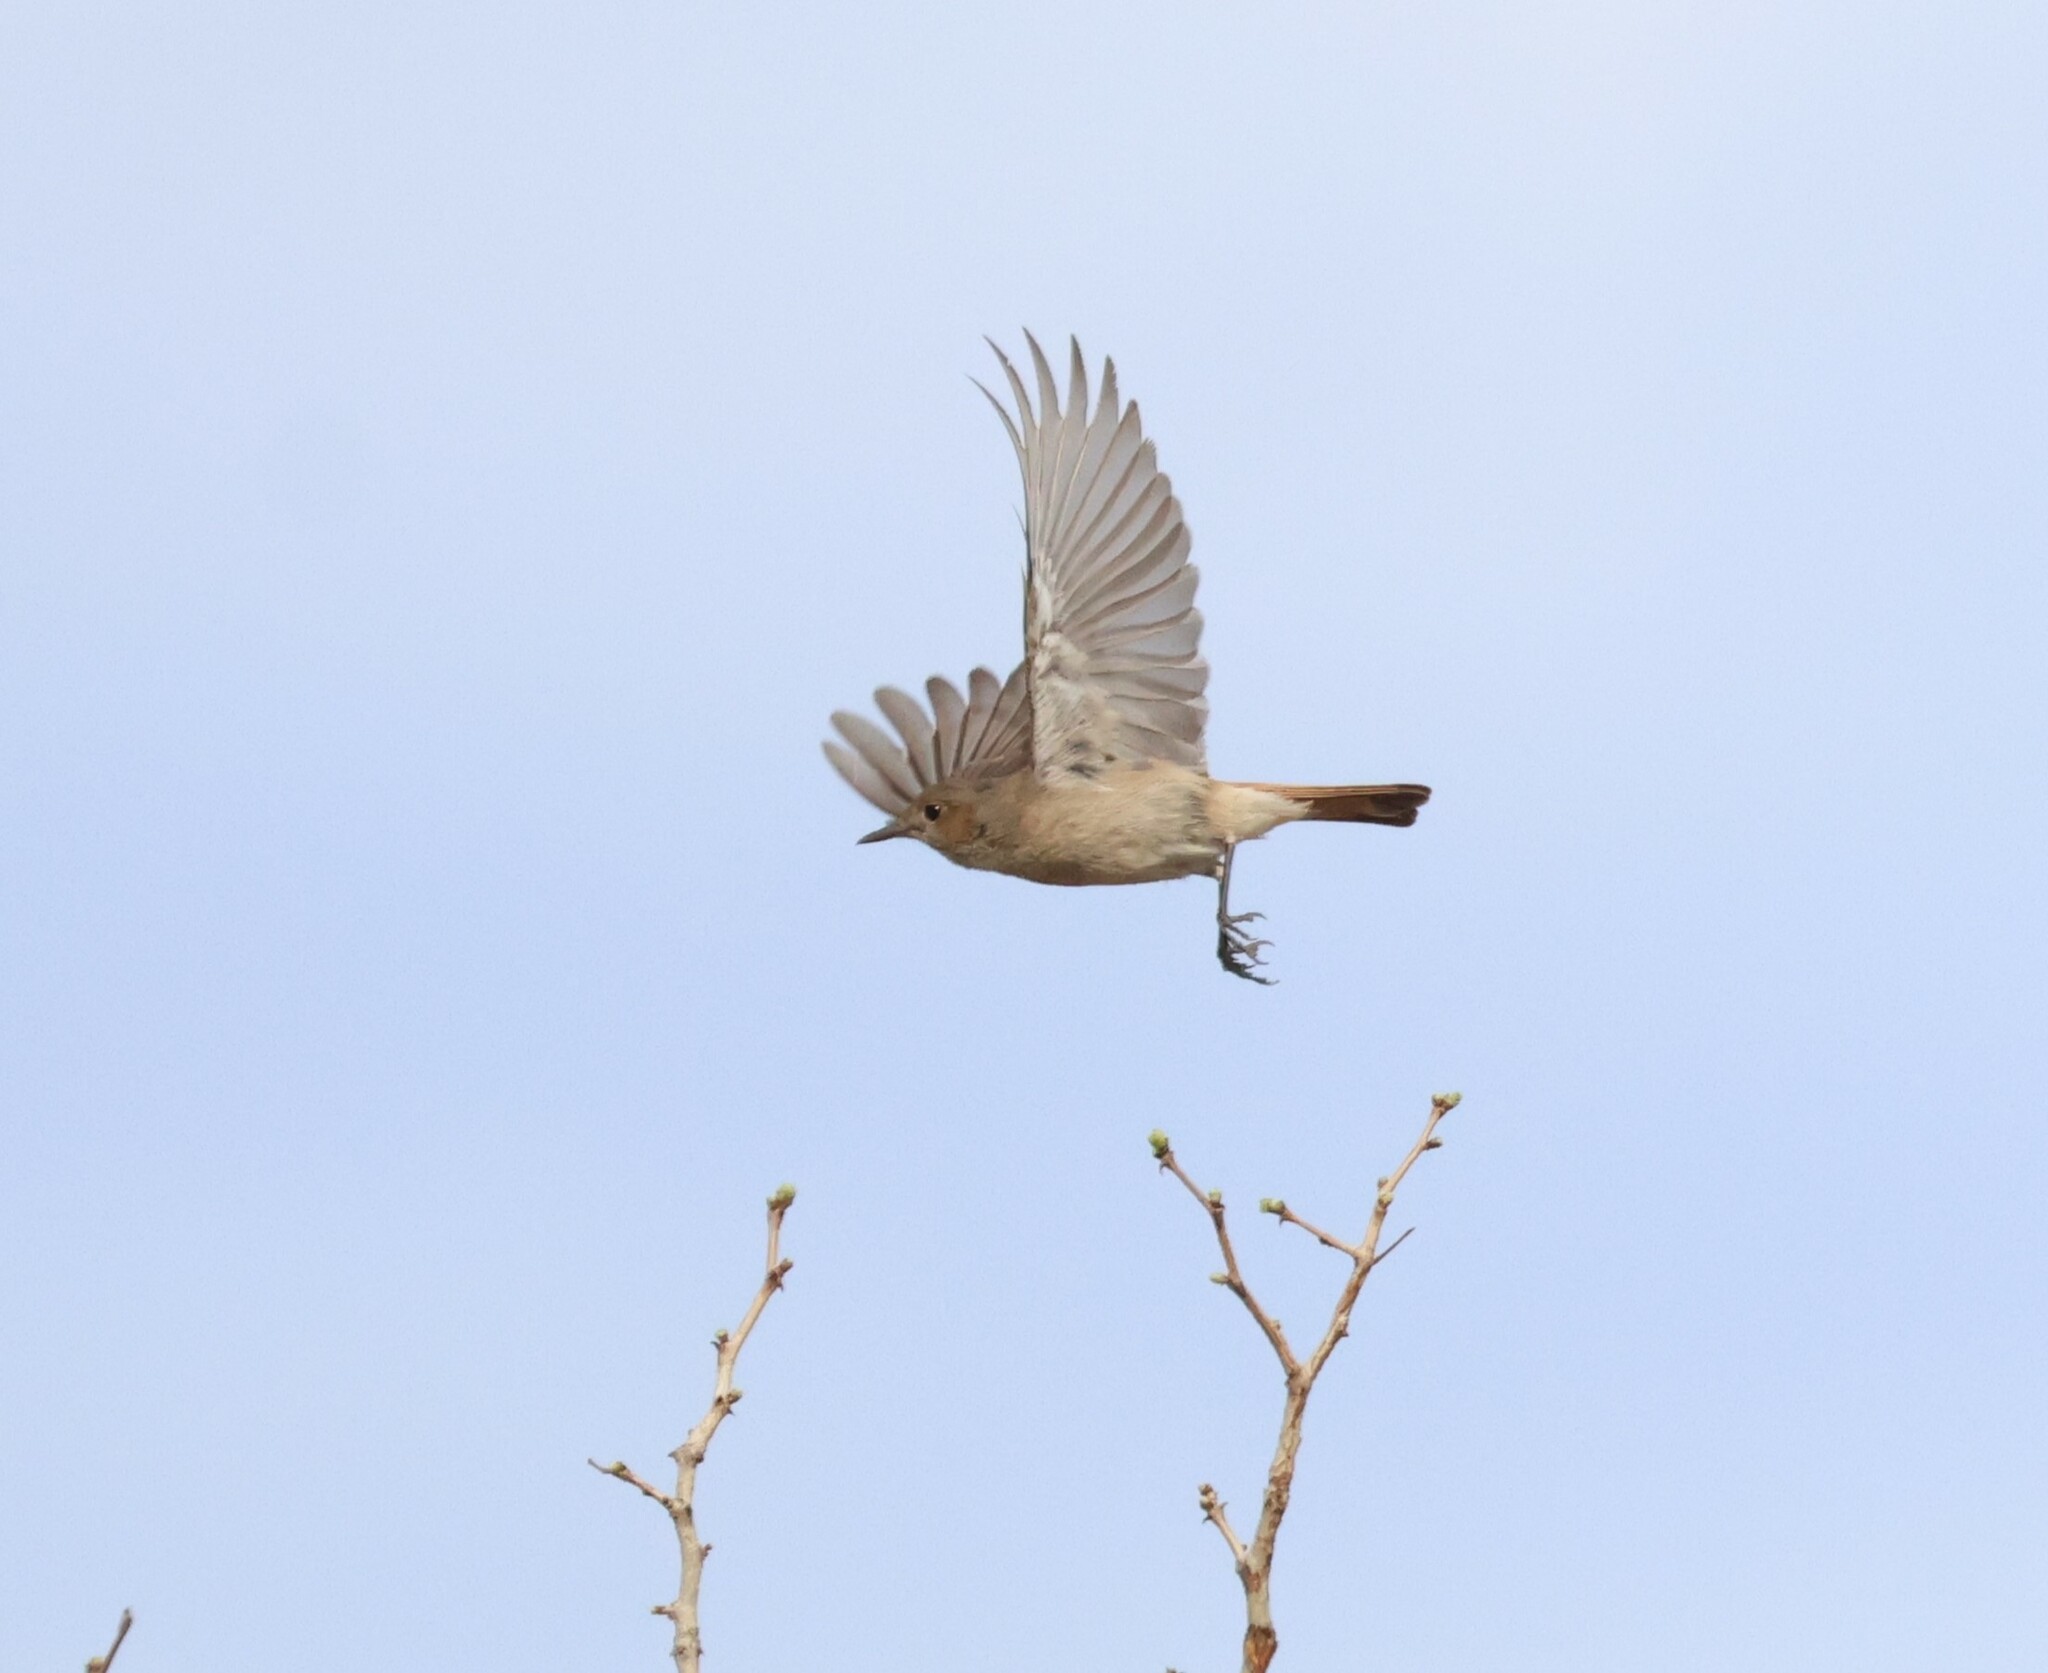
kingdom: Animalia
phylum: Chordata
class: Aves
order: Passeriformes
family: Muscicapidae
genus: Oenanthe
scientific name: Oenanthe familiaris
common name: Familiar chat
